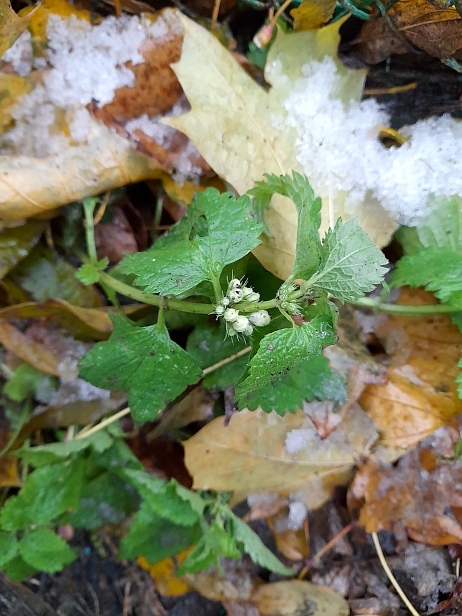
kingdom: Plantae
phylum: Tracheophyta
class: Magnoliopsida
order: Lamiales
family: Lamiaceae
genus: Lamium
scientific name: Lamium album
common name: White dead-nettle
